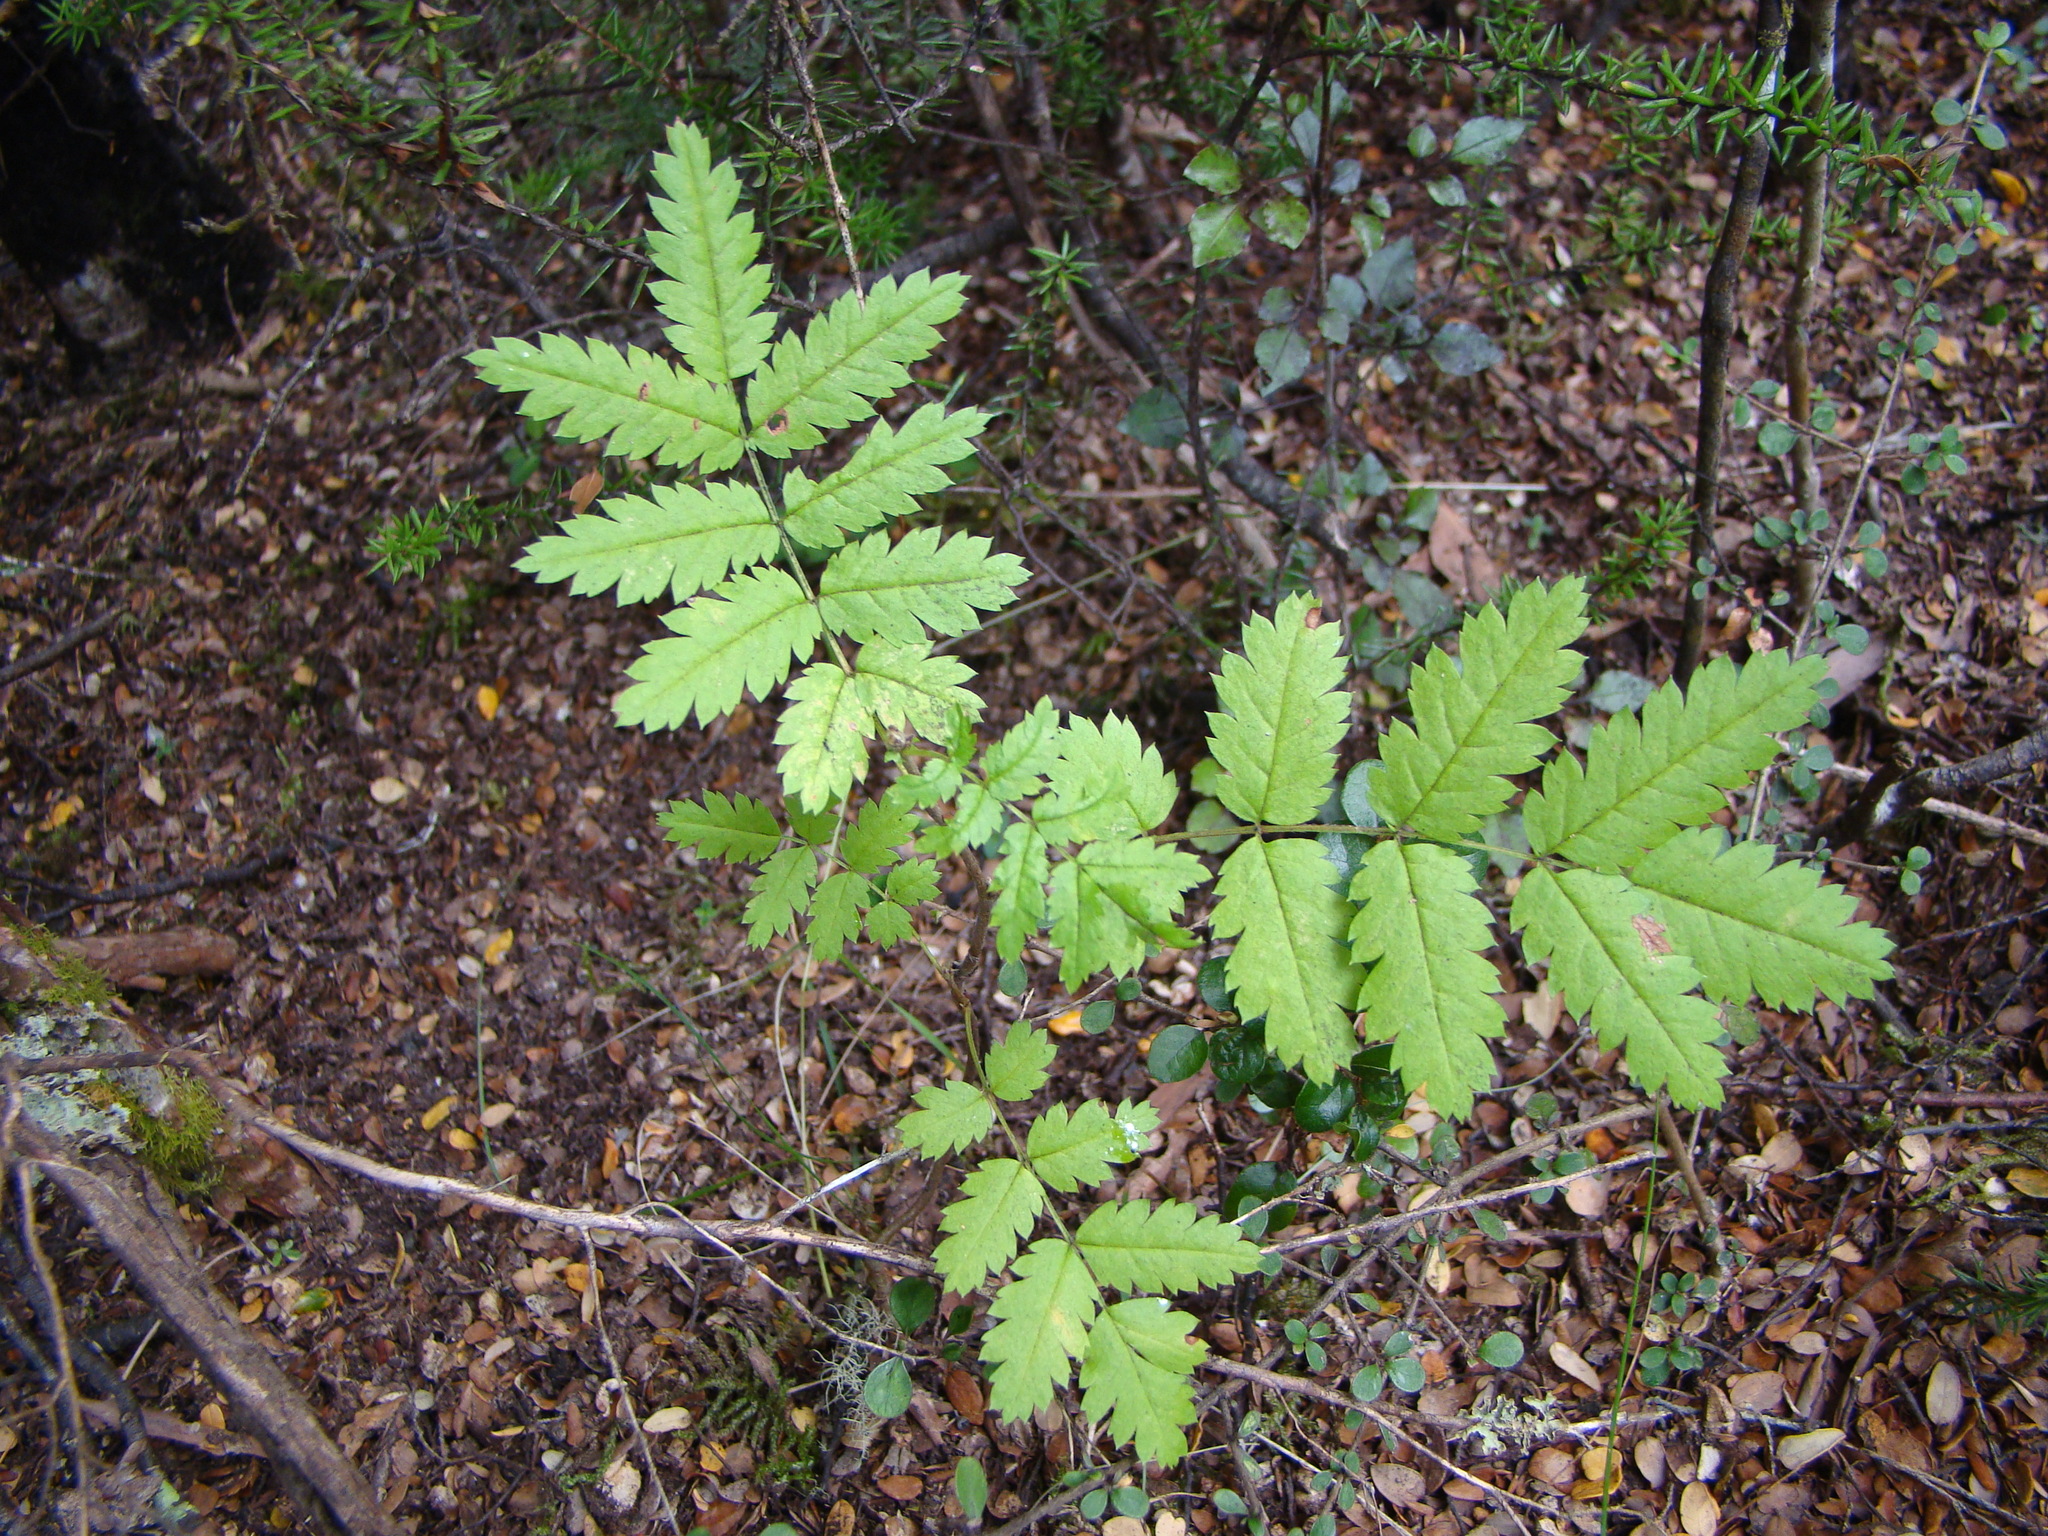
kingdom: Plantae
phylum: Tracheophyta
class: Magnoliopsida
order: Rosales
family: Rosaceae
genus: Sorbus
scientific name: Sorbus aucuparia
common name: Rowan
